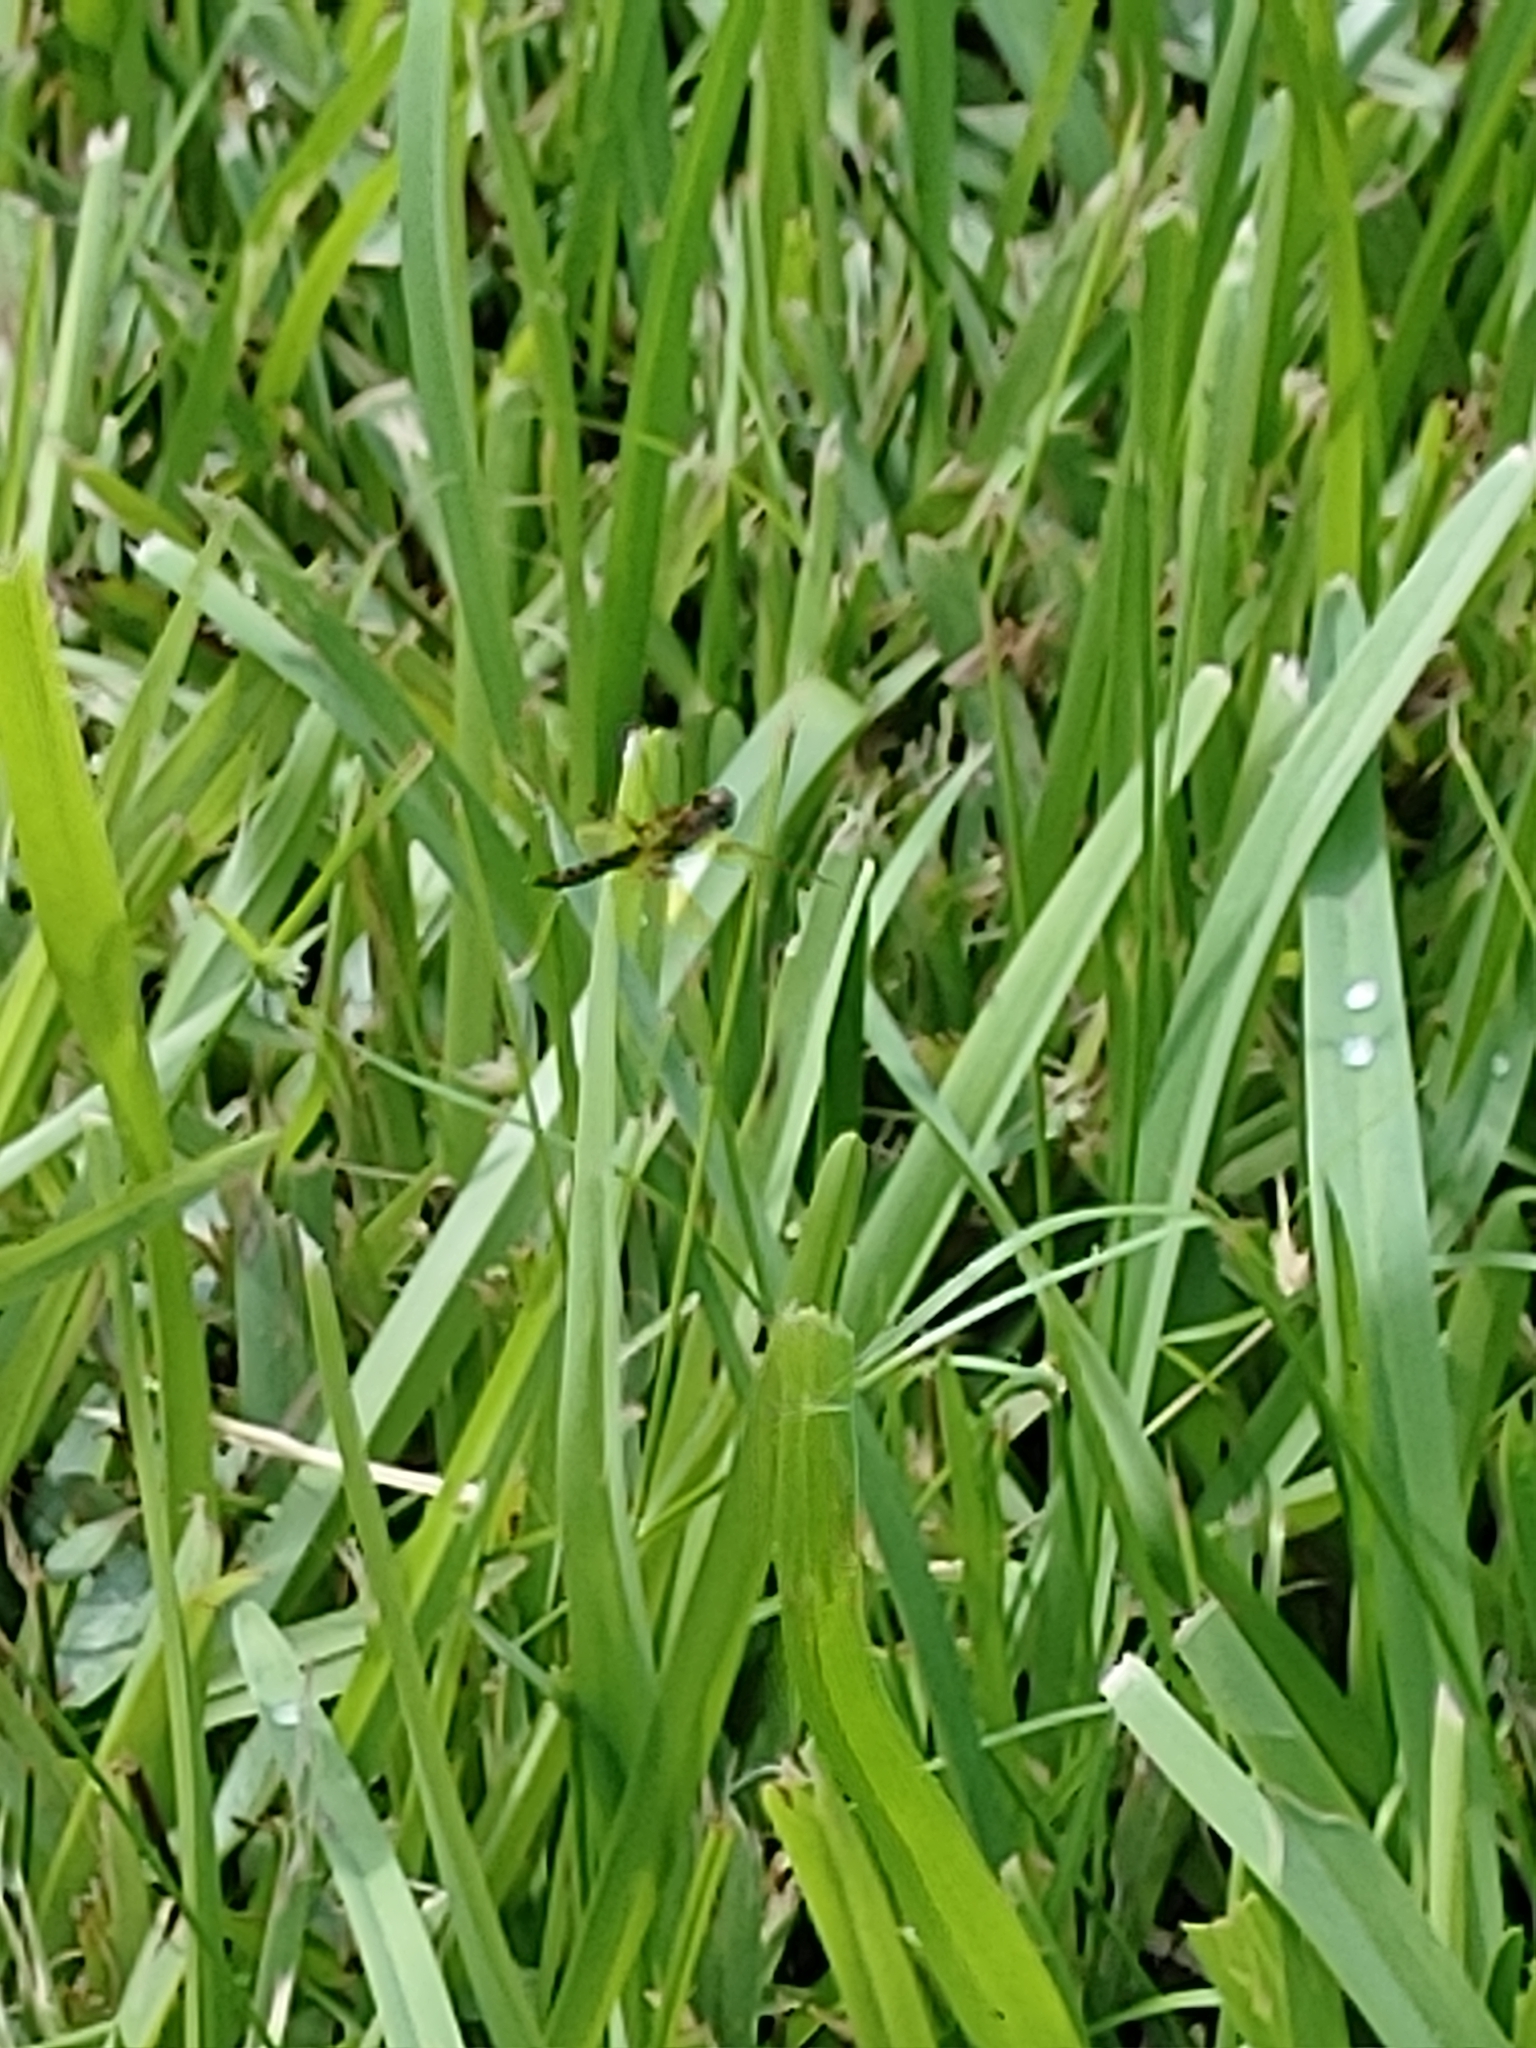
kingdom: Animalia
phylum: Arthropoda
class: Insecta
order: Odonata
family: Libellulidae
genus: Perithemis
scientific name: Perithemis tenera
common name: Eastern amberwing
